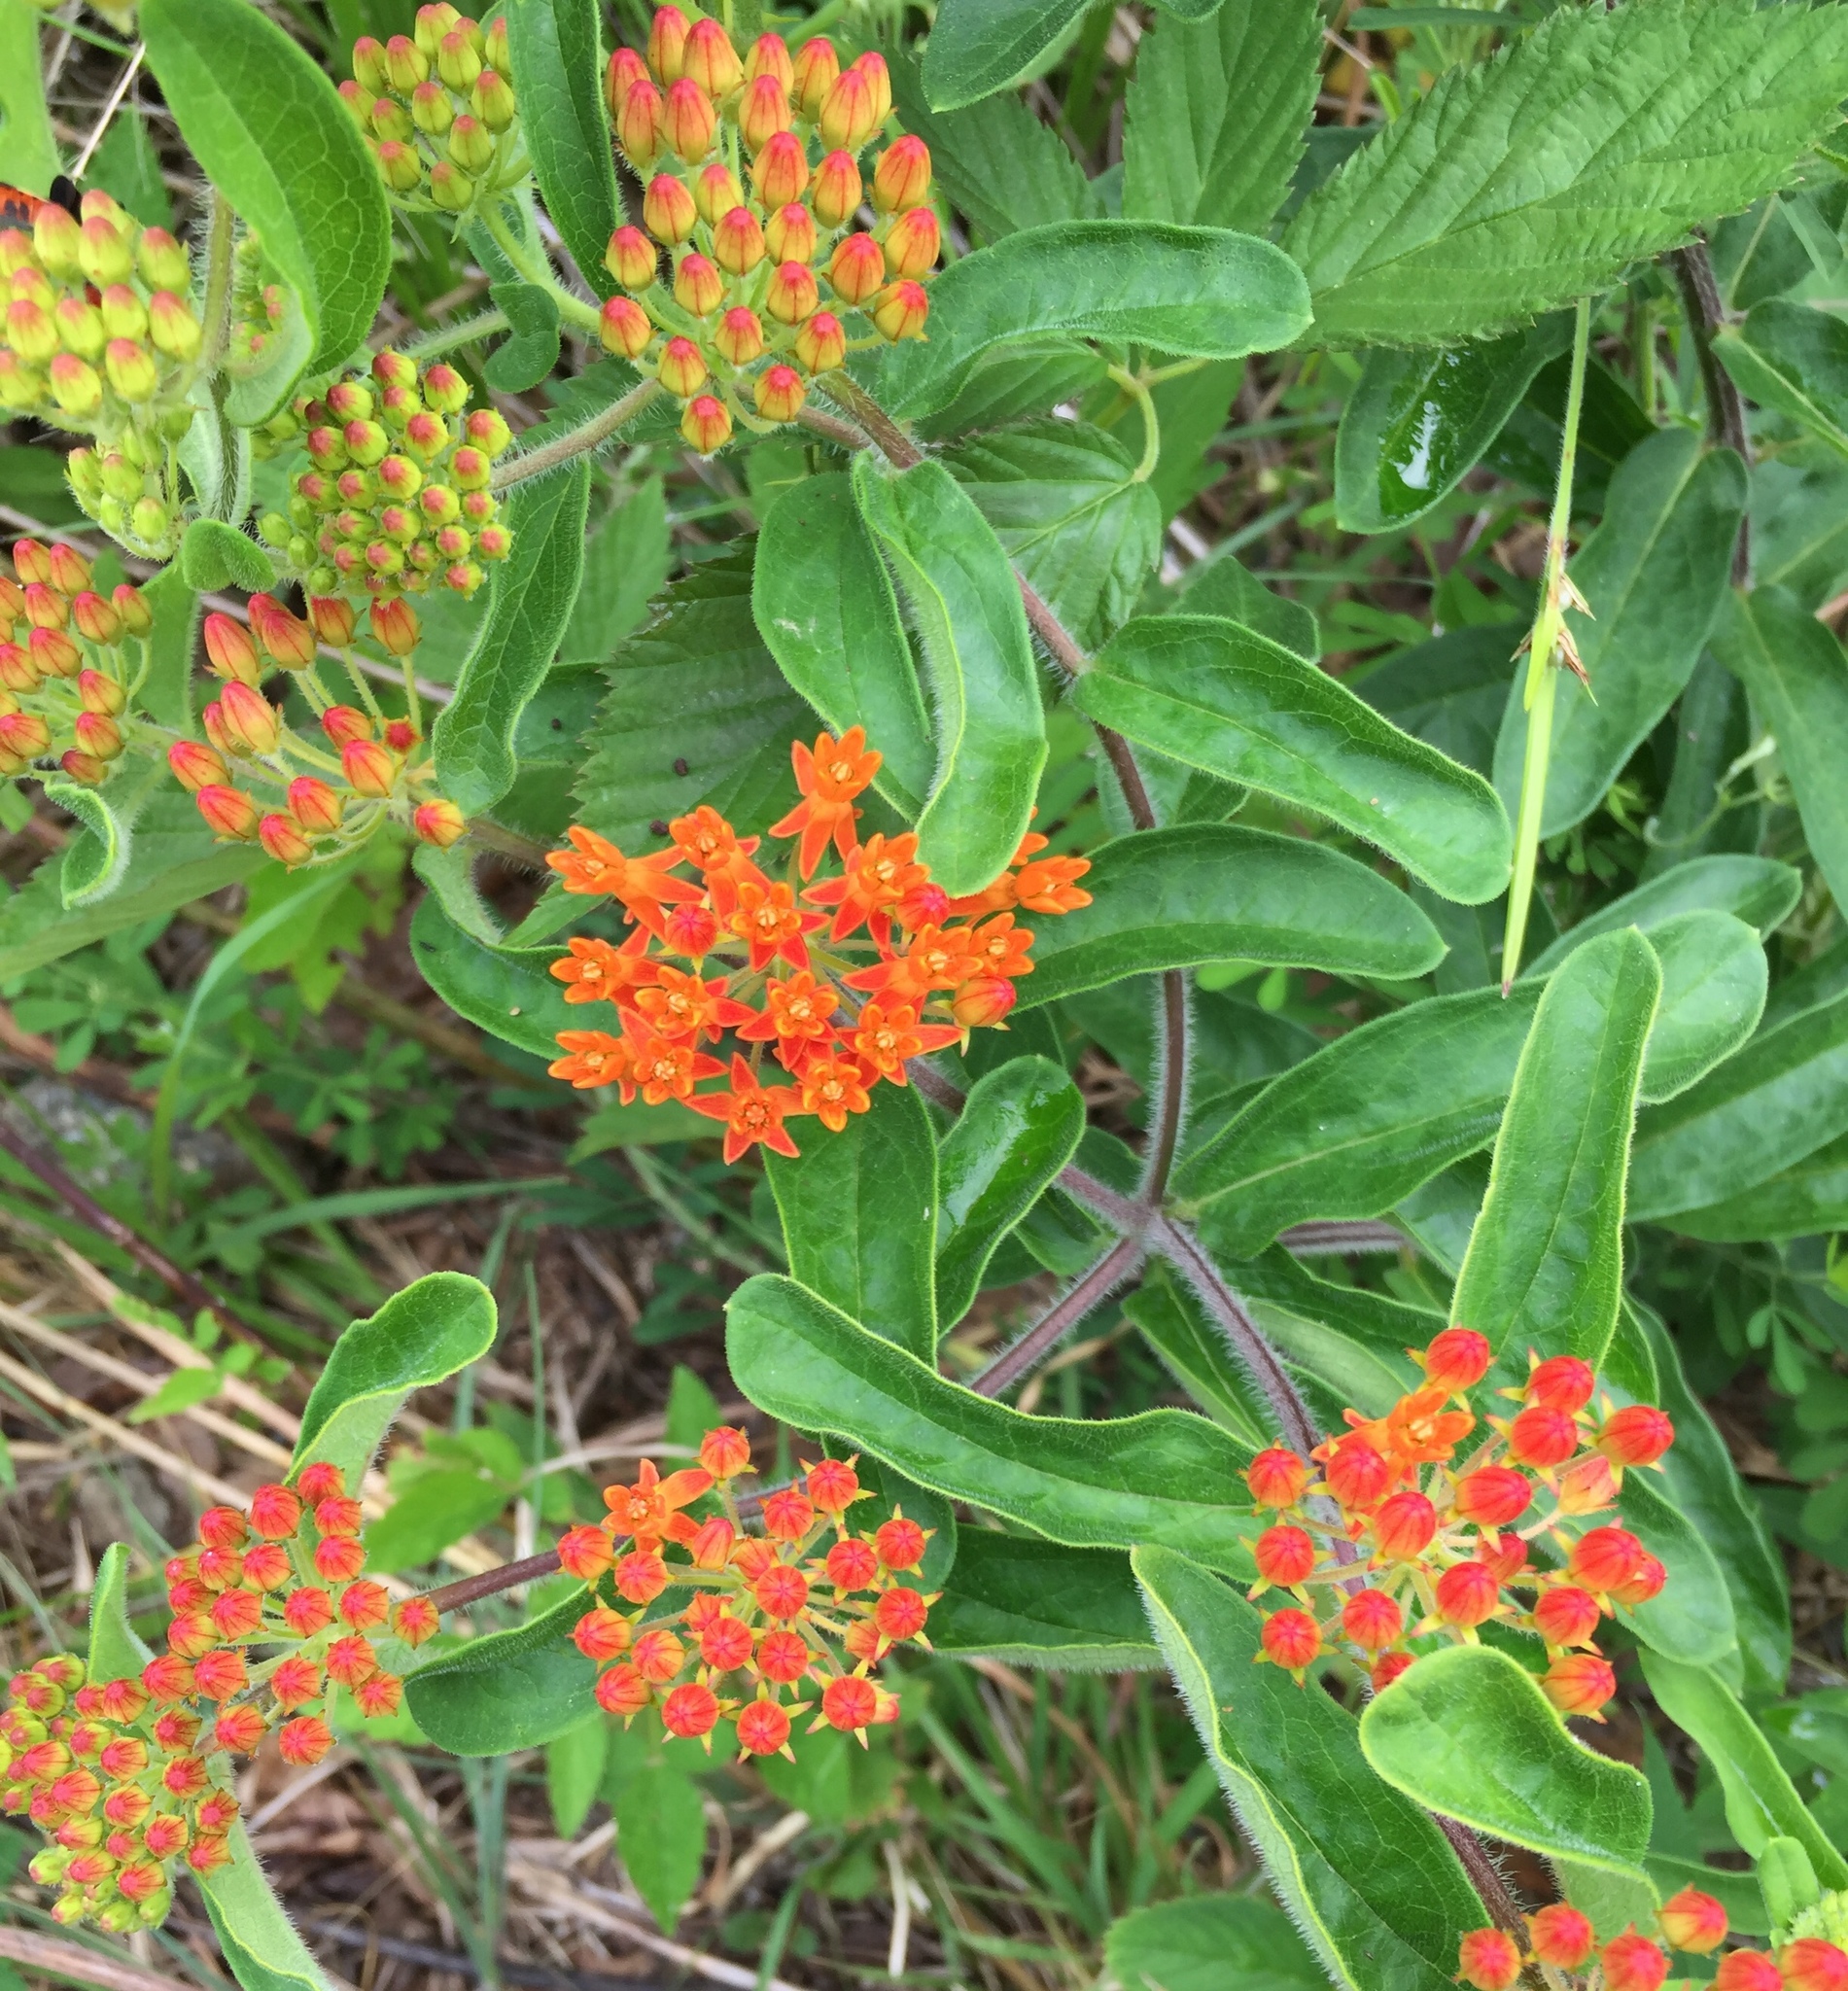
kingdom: Plantae
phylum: Tracheophyta
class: Magnoliopsida
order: Gentianales
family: Apocynaceae
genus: Asclepias
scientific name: Asclepias tuberosa
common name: Butterfly milkweed
